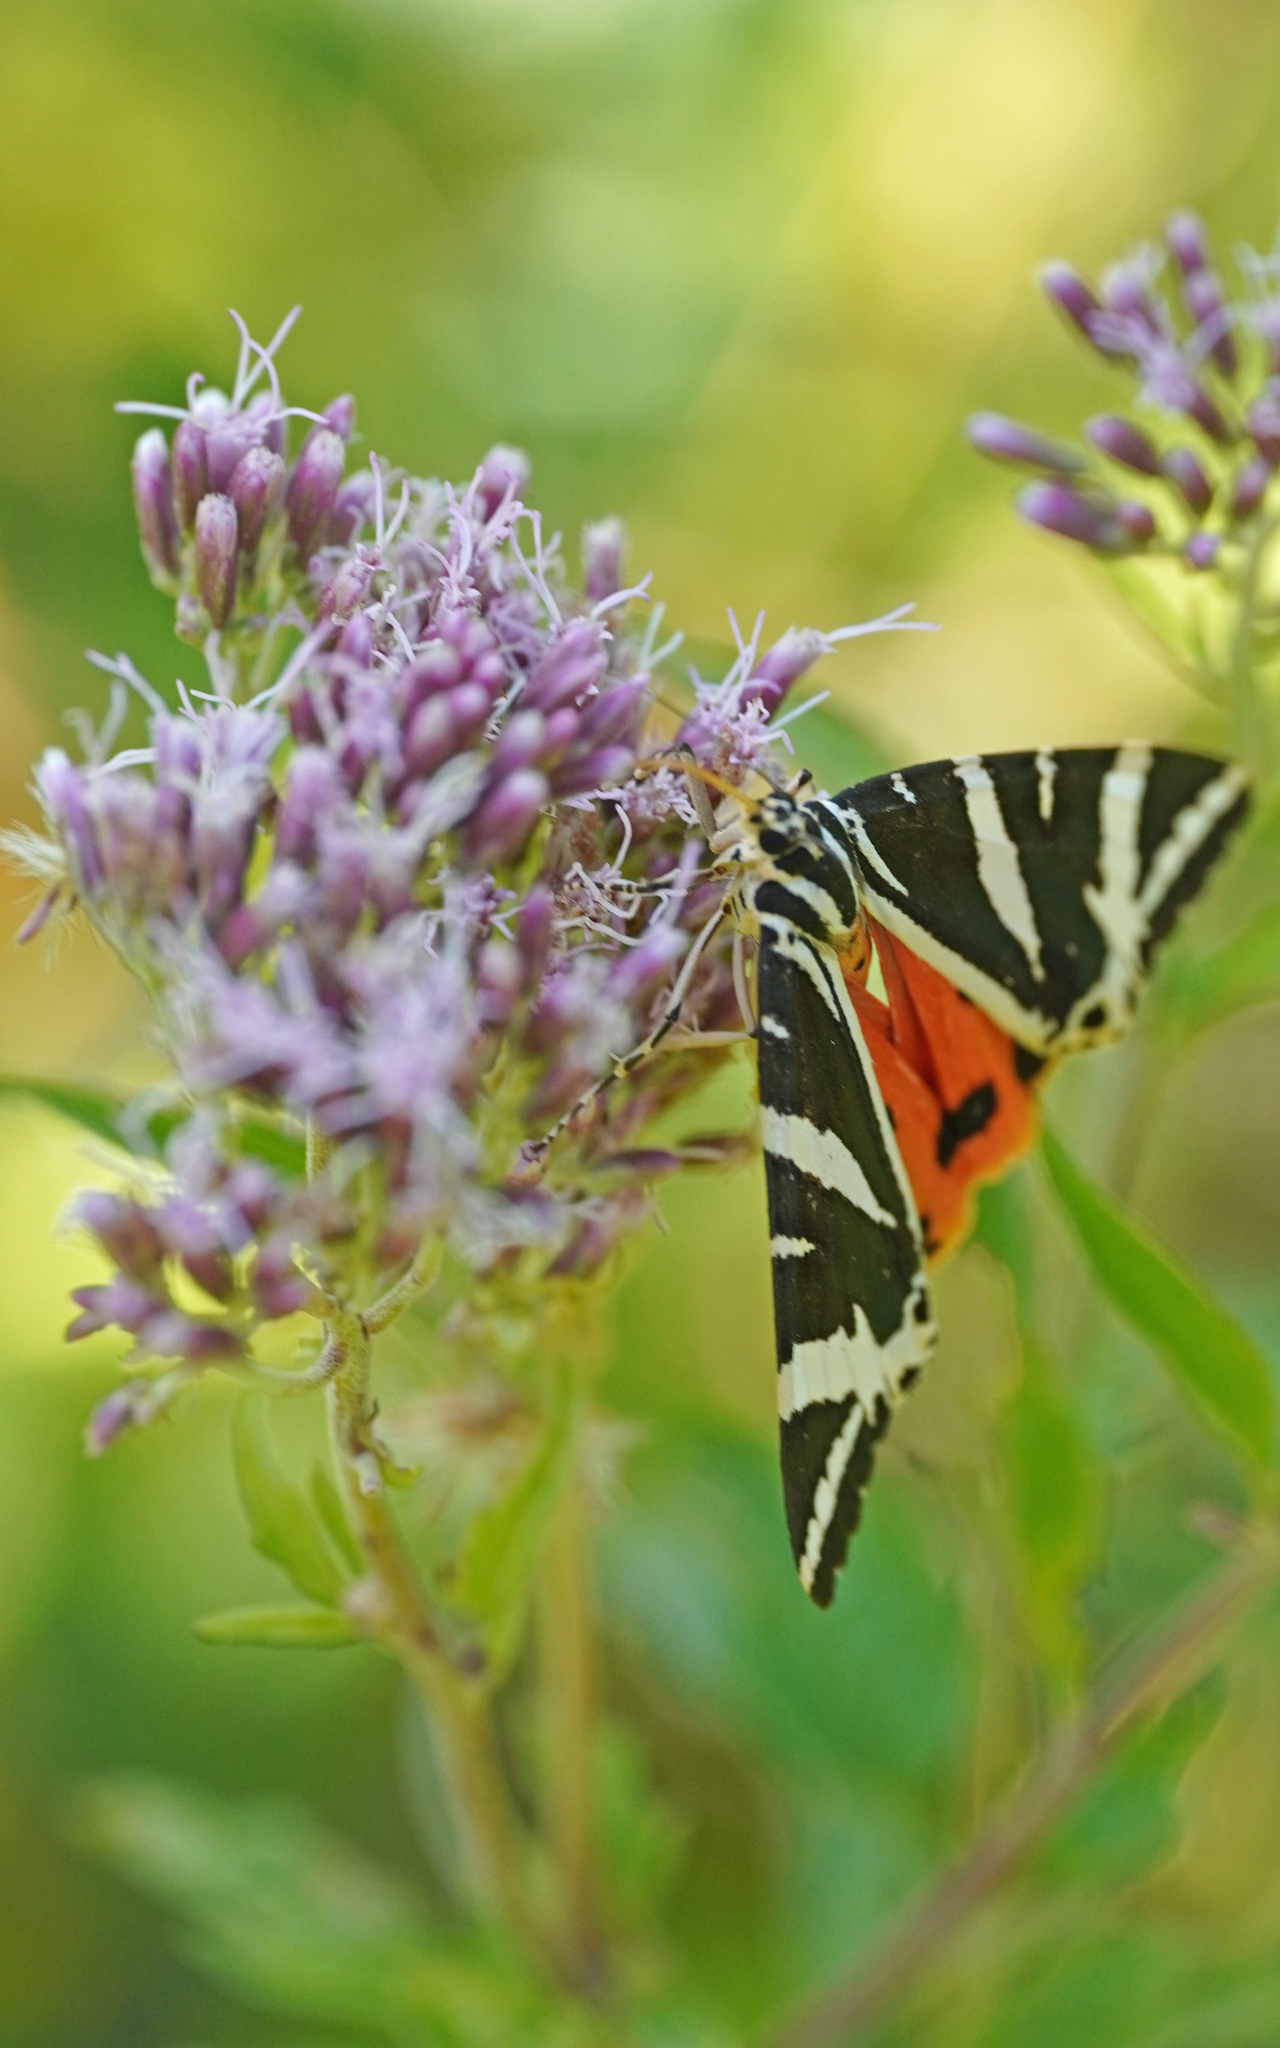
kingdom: Animalia
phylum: Arthropoda
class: Insecta
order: Lepidoptera
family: Erebidae
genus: Euplagia
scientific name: Euplagia quadripunctaria
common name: Jersey tiger
